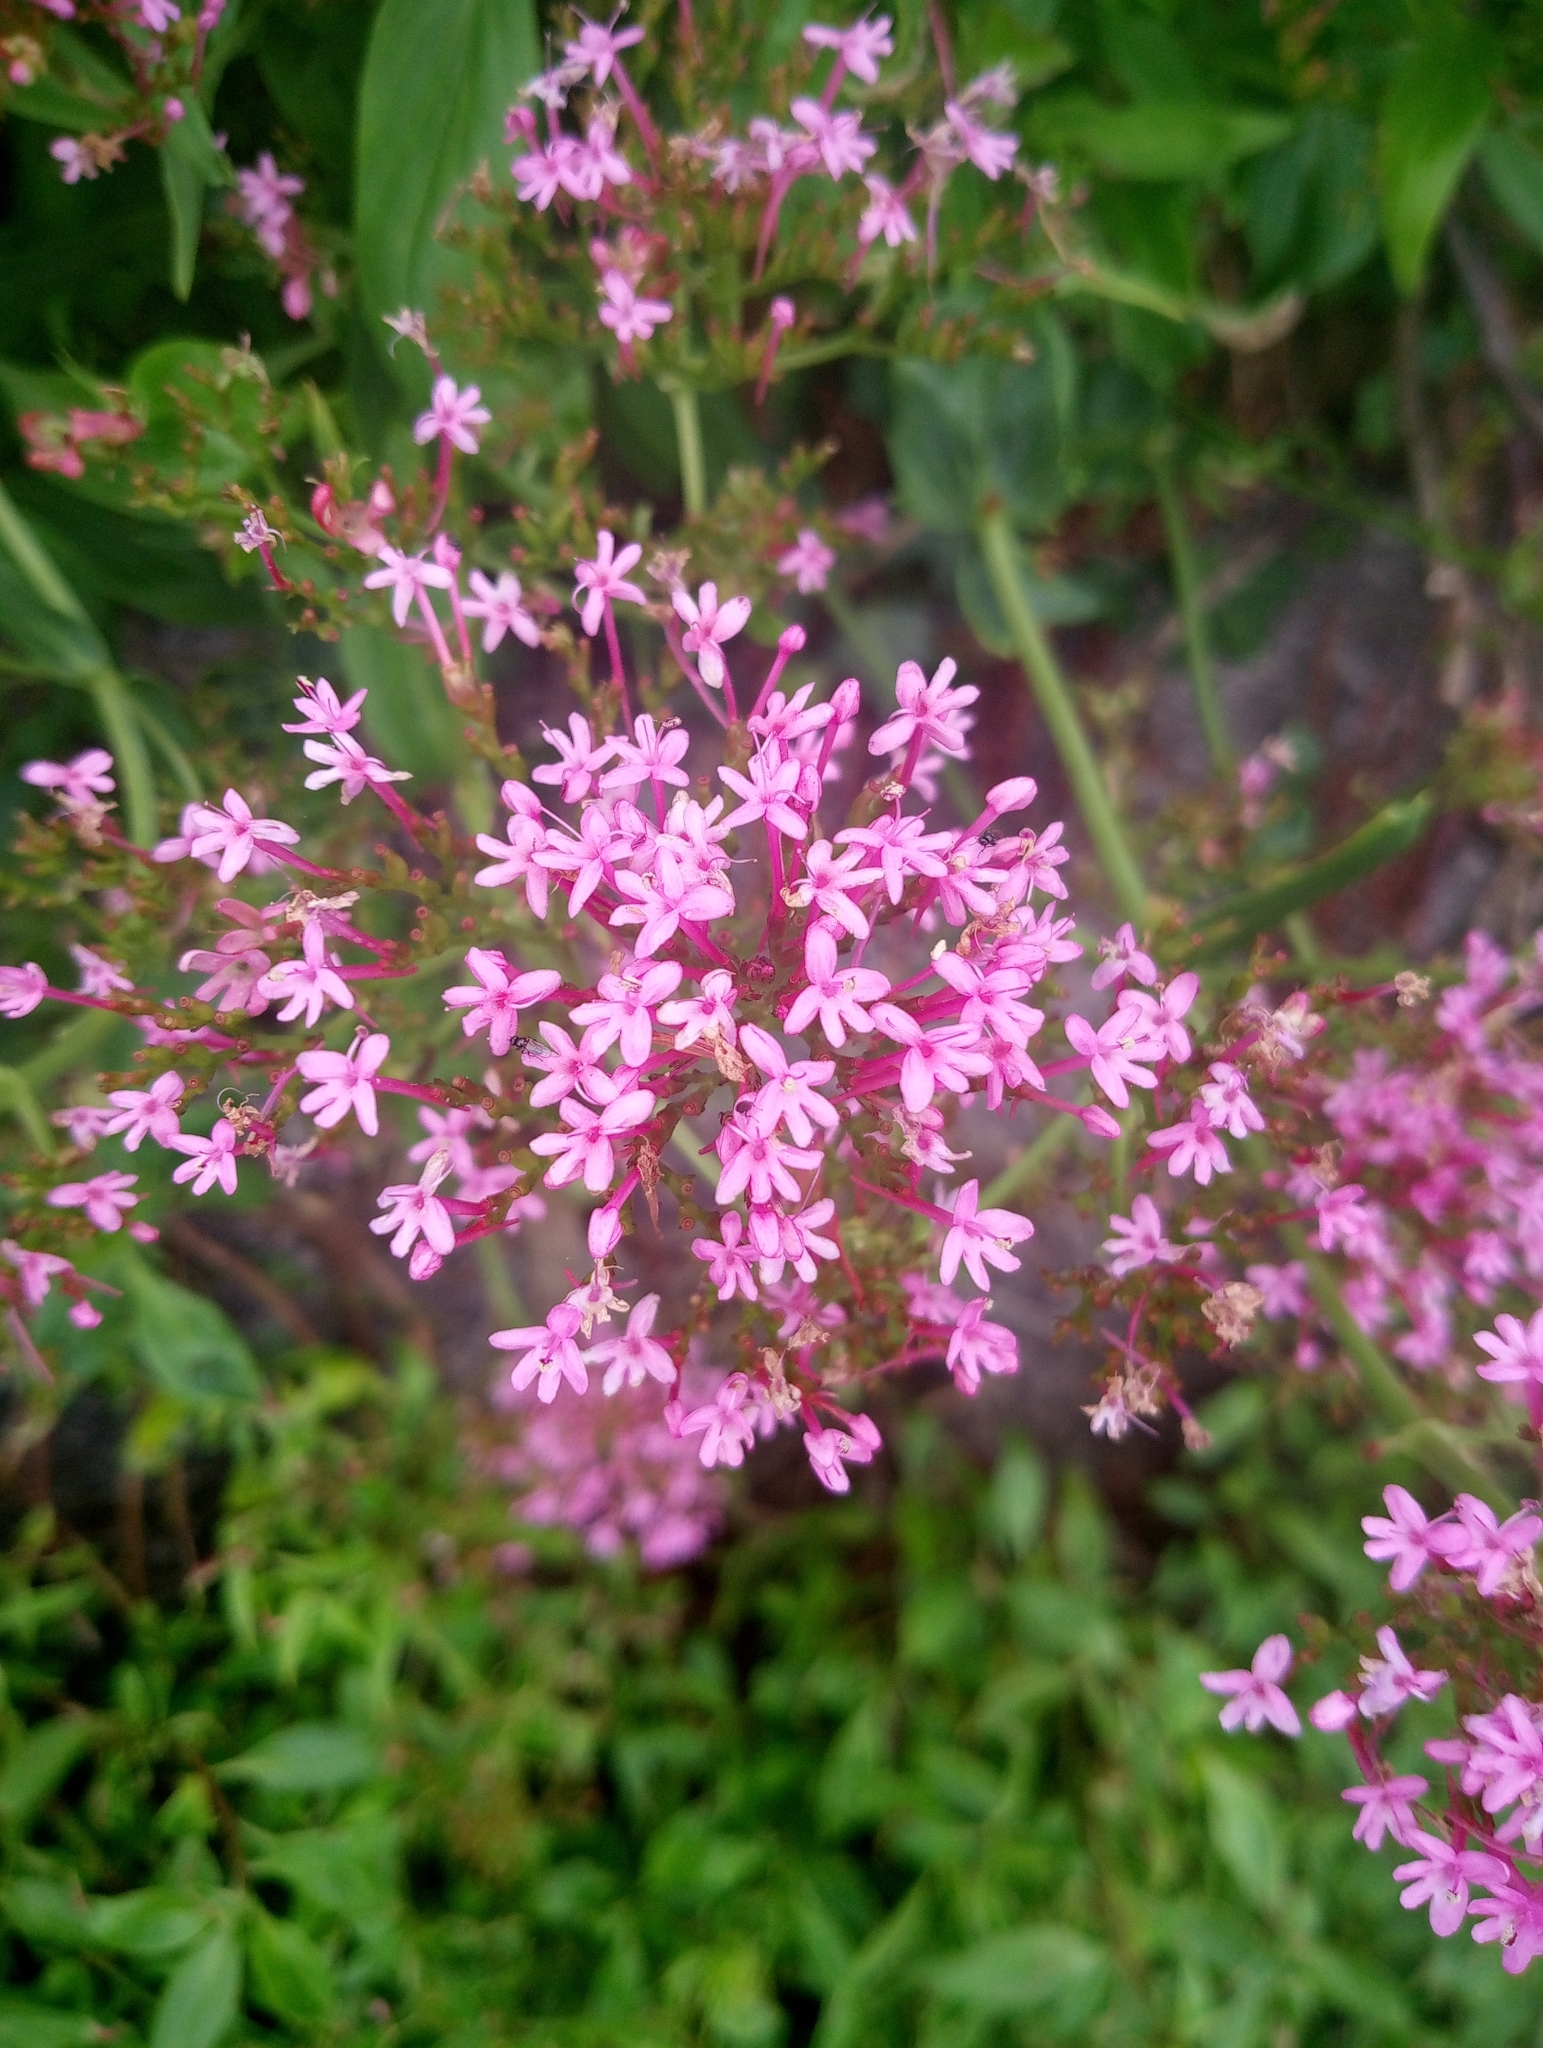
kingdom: Plantae
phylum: Tracheophyta
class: Magnoliopsida
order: Dipsacales
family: Caprifoliaceae
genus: Centranthus
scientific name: Centranthus ruber
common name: Red valerian
